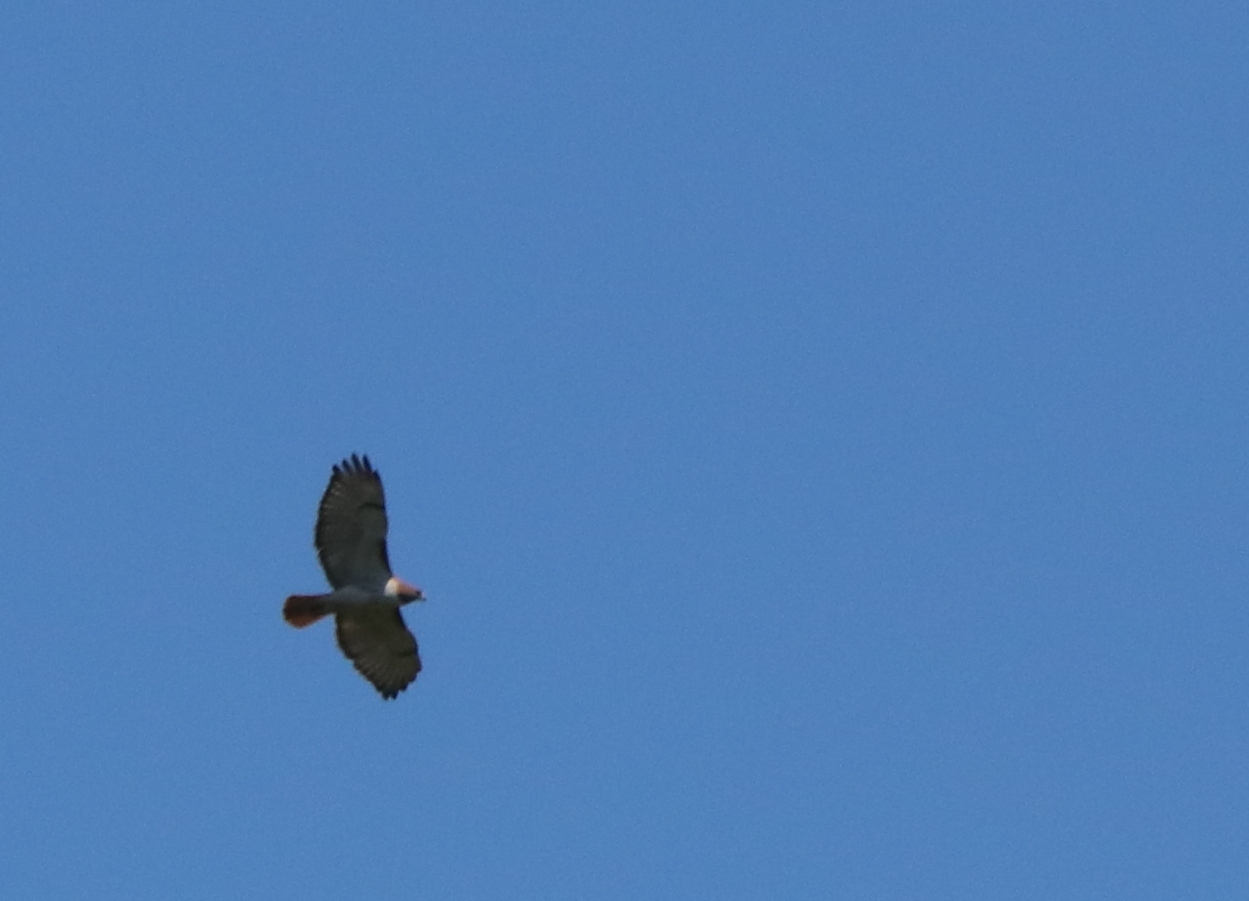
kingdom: Animalia
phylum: Chordata
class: Aves
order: Accipitriformes
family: Accipitridae
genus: Buteo
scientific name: Buteo jamaicensis
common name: Red-tailed hawk
